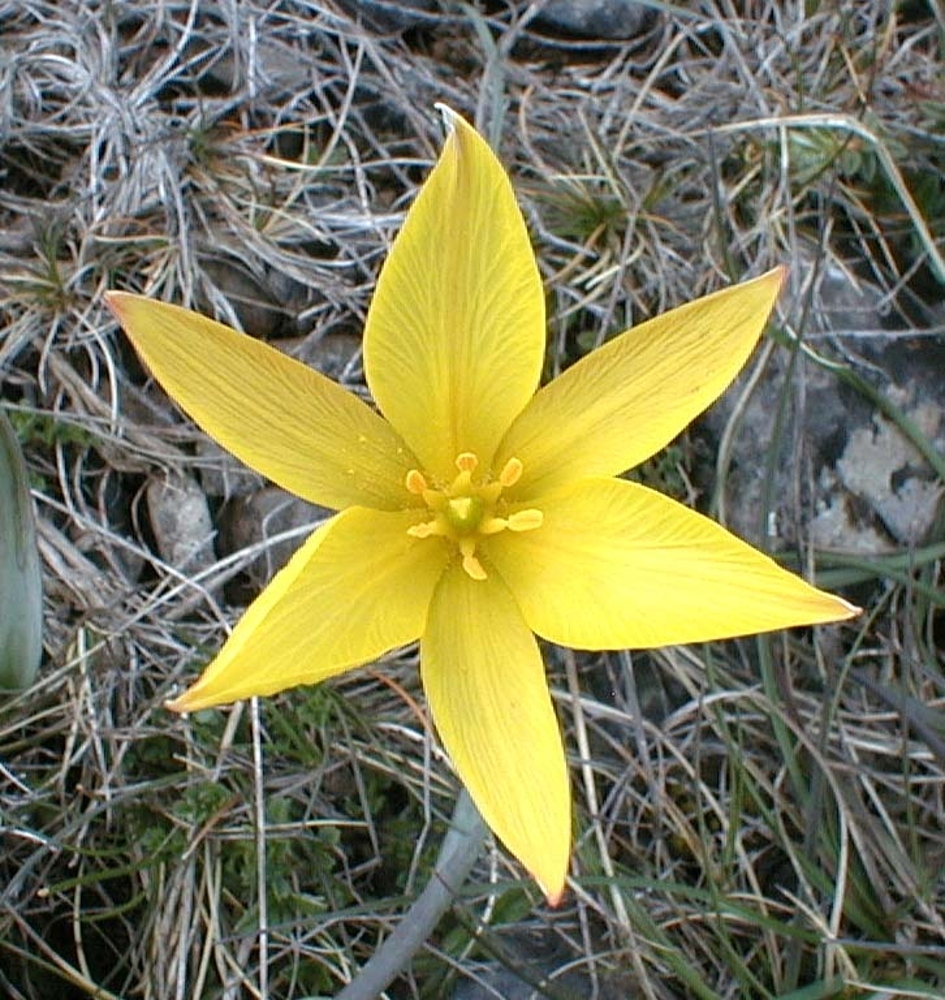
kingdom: Plantae
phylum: Tracheophyta
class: Liliopsida
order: Liliales
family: Liliaceae
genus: Tulipa
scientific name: Tulipa sylvestris
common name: Wild tulip
